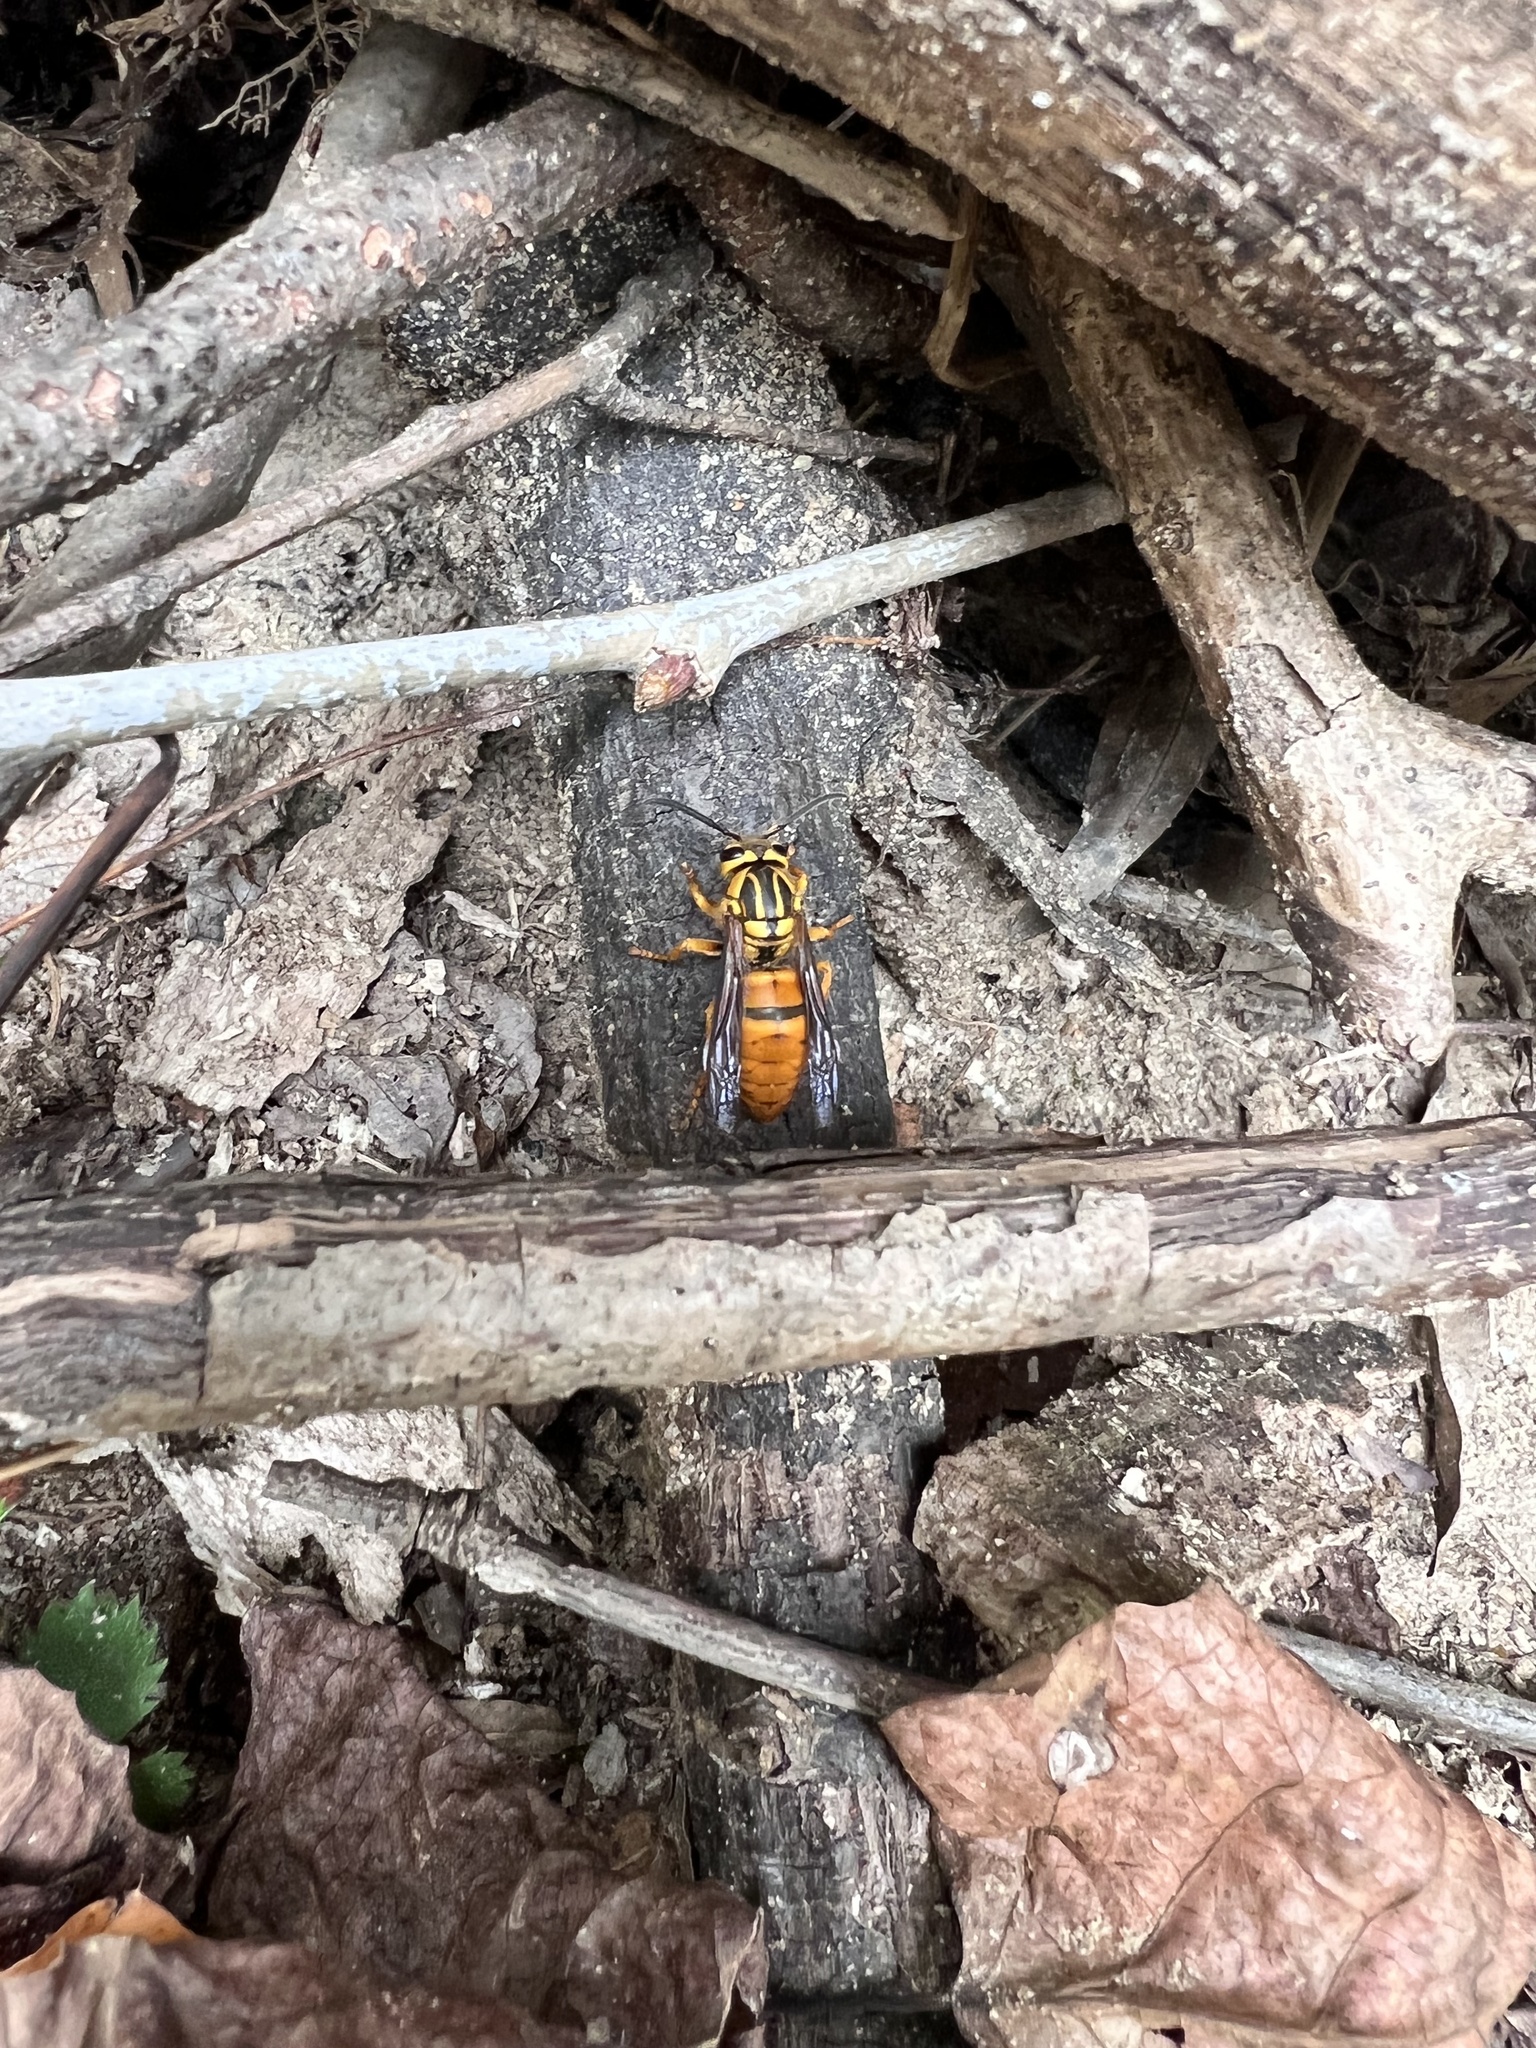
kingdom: Animalia
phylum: Arthropoda
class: Insecta
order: Hymenoptera
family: Vespidae
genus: Vespula
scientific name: Vespula squamosa
